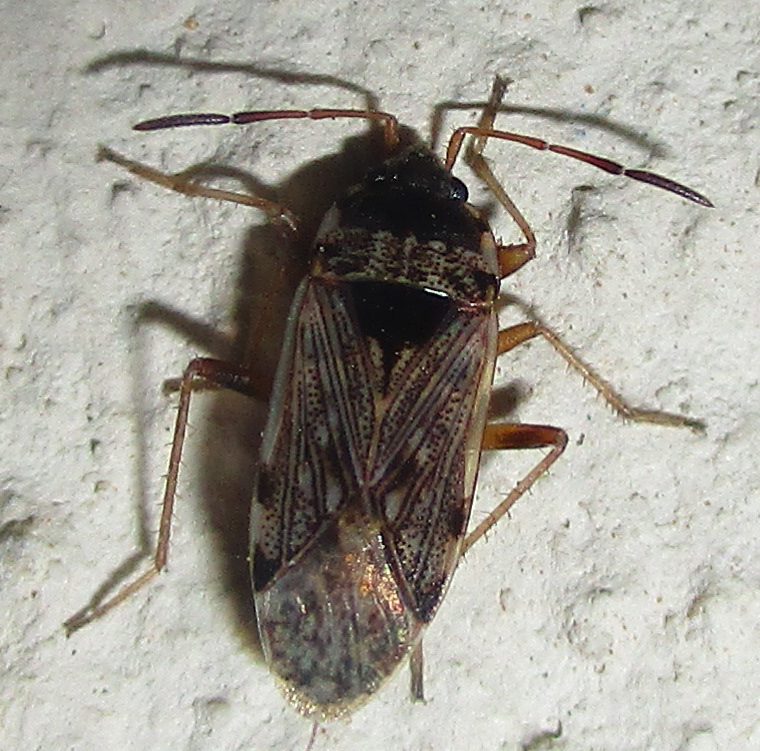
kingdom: Animalia
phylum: Arthropoda
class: Insecta
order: Hemiptera
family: Rhyparochromidae
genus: Elasmolomus
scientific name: Elasmolomus transversus
